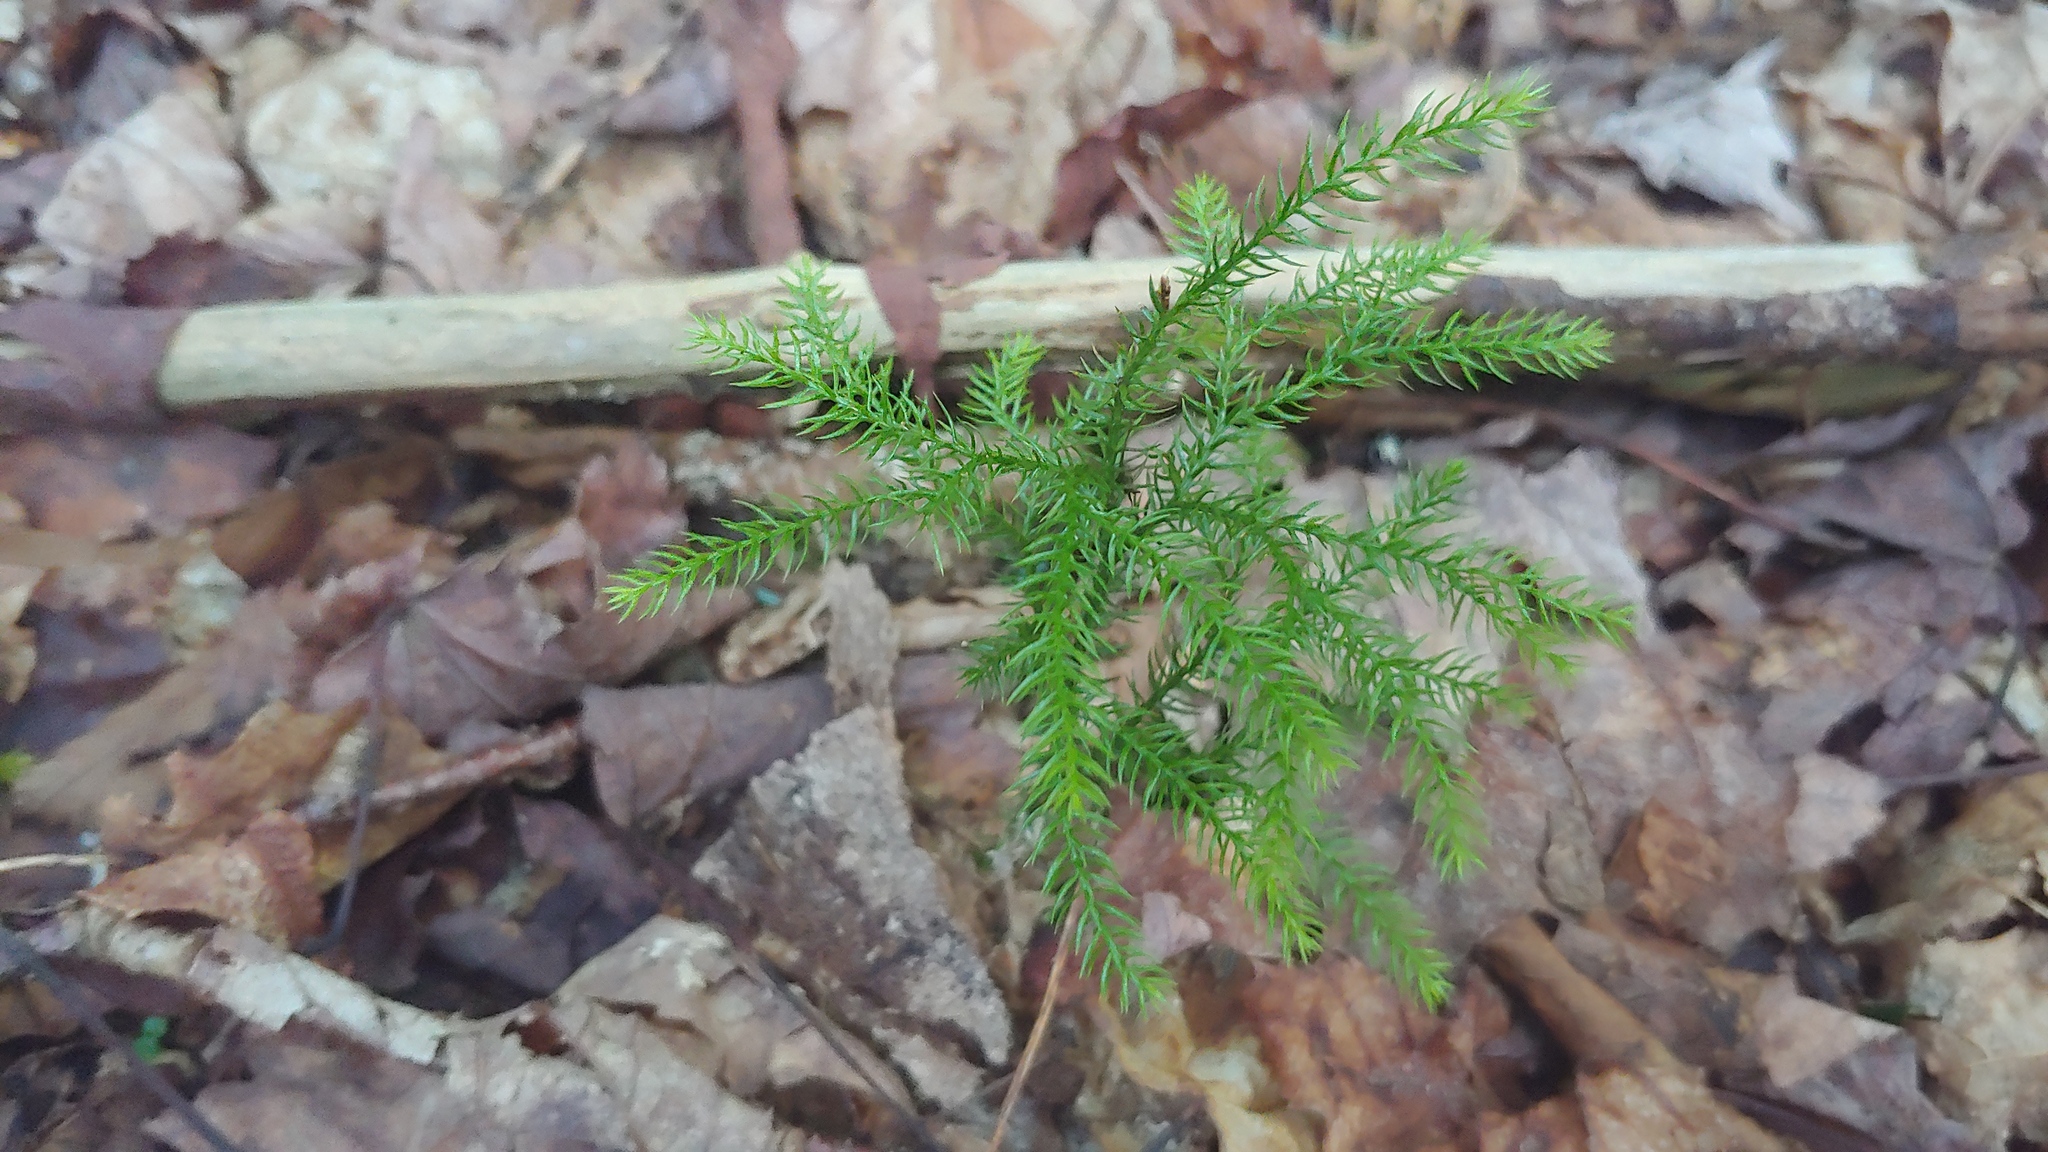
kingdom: Plantae
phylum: Tracheophyta
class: Lycopodiopsida
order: Lycopodiales
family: Lycopodiaceae
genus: Dendrolycopodium
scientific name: Dendrolycopodium dendroideum
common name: Northern tree-clubmoss
